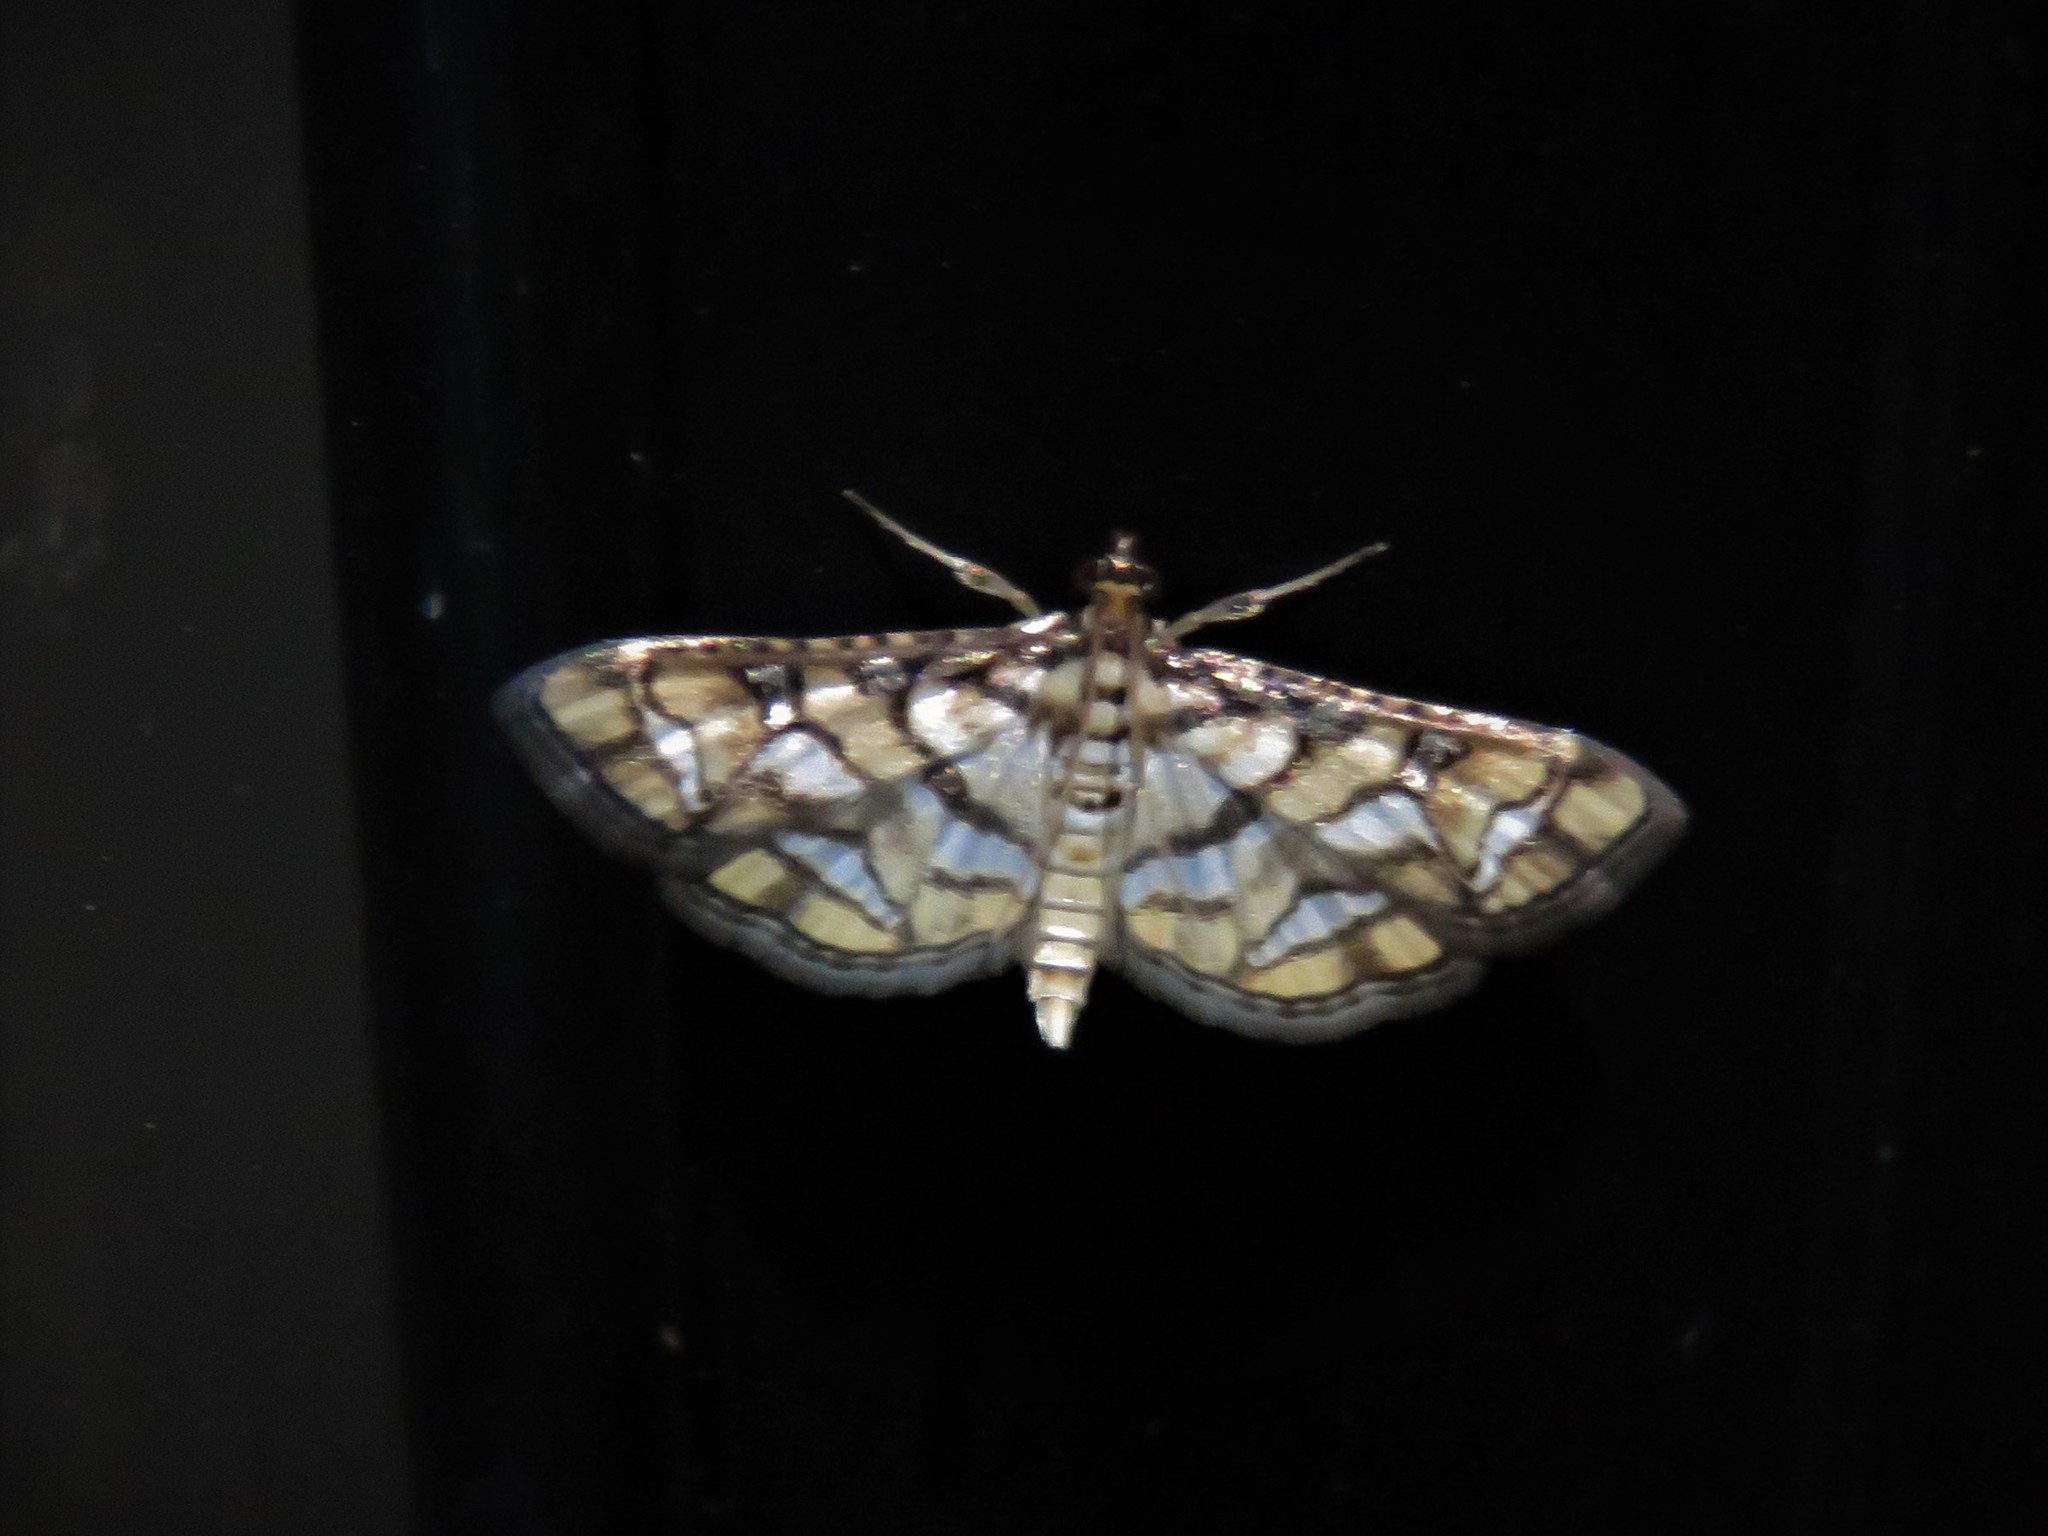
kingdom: Animalia
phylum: Arthropoda
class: Insecta
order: Lepidoptera
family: Crambidae
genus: Hileithia
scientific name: Hileithia magualis
